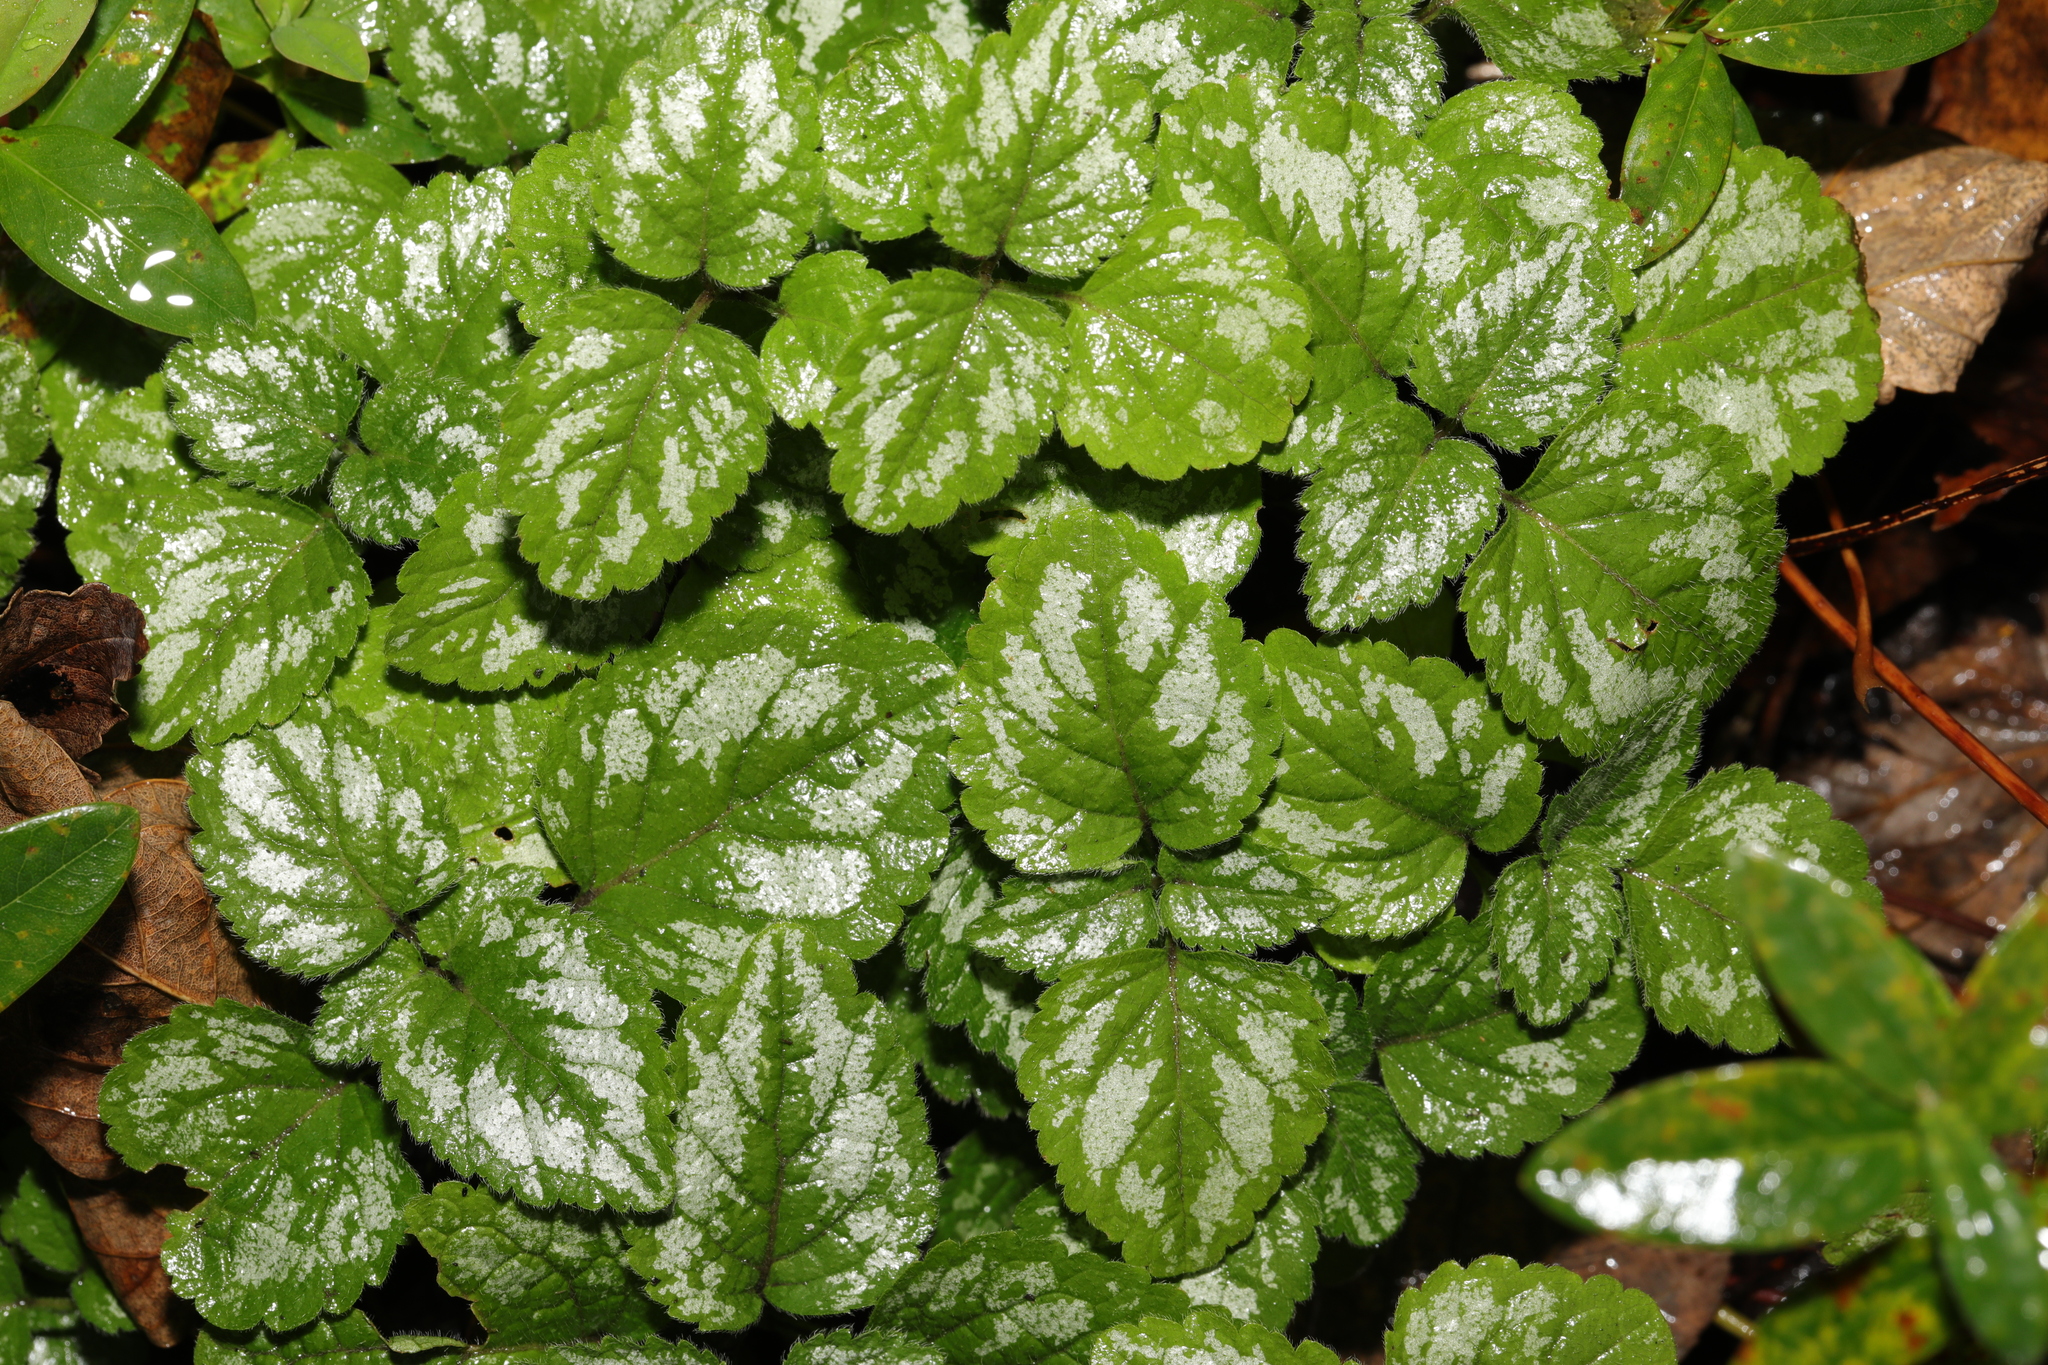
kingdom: Plantae
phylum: Tracheophyta
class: Magnoliopsida
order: Lamiales
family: Lamiaceae
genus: Lamium
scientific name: Lamium galeobdolon
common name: Yellow archangel
